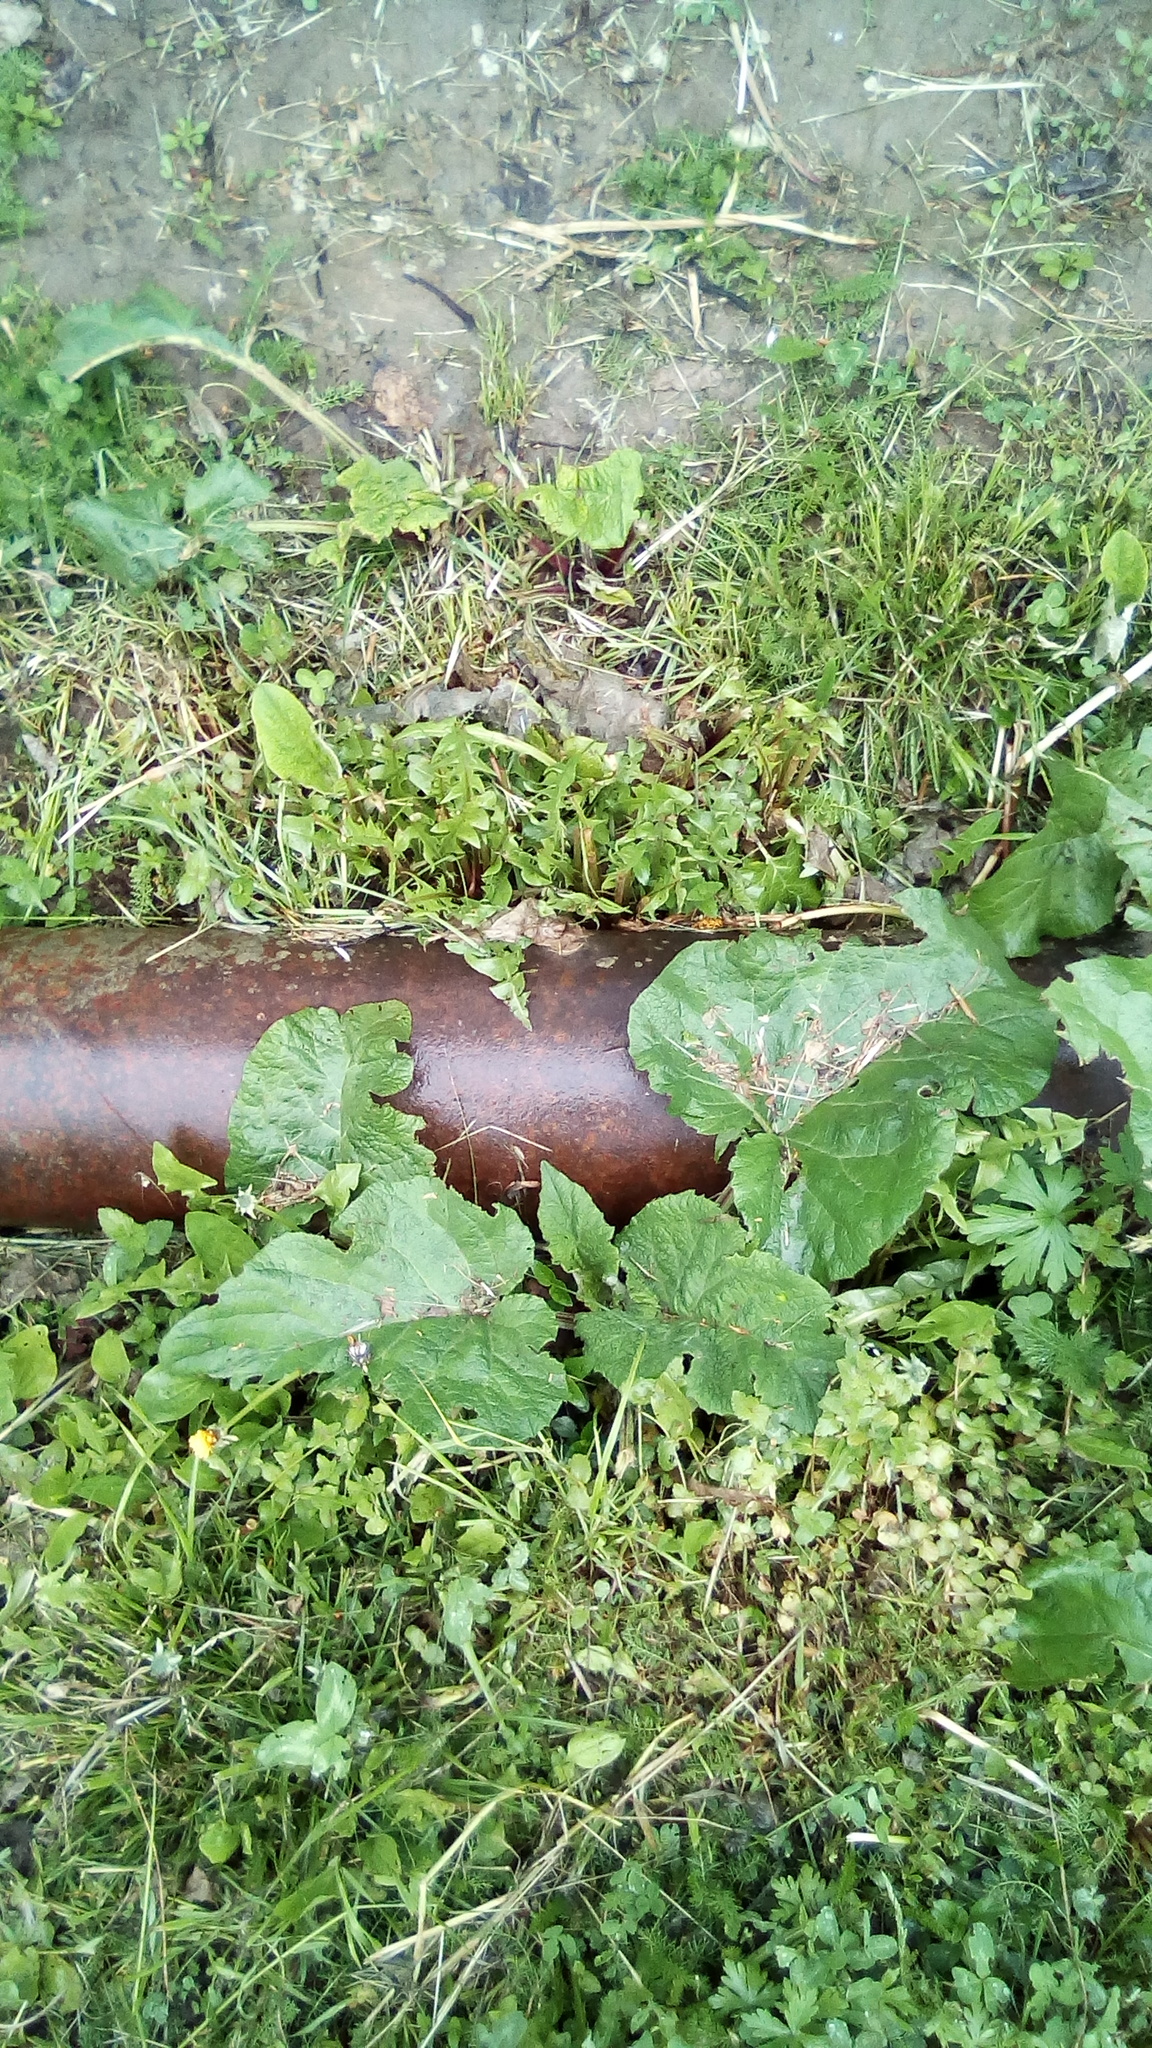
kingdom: Plantae
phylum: Tracheophyta
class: Magnoliopsida
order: Asterales
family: Asteraceae
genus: Arctium
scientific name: Arctium
